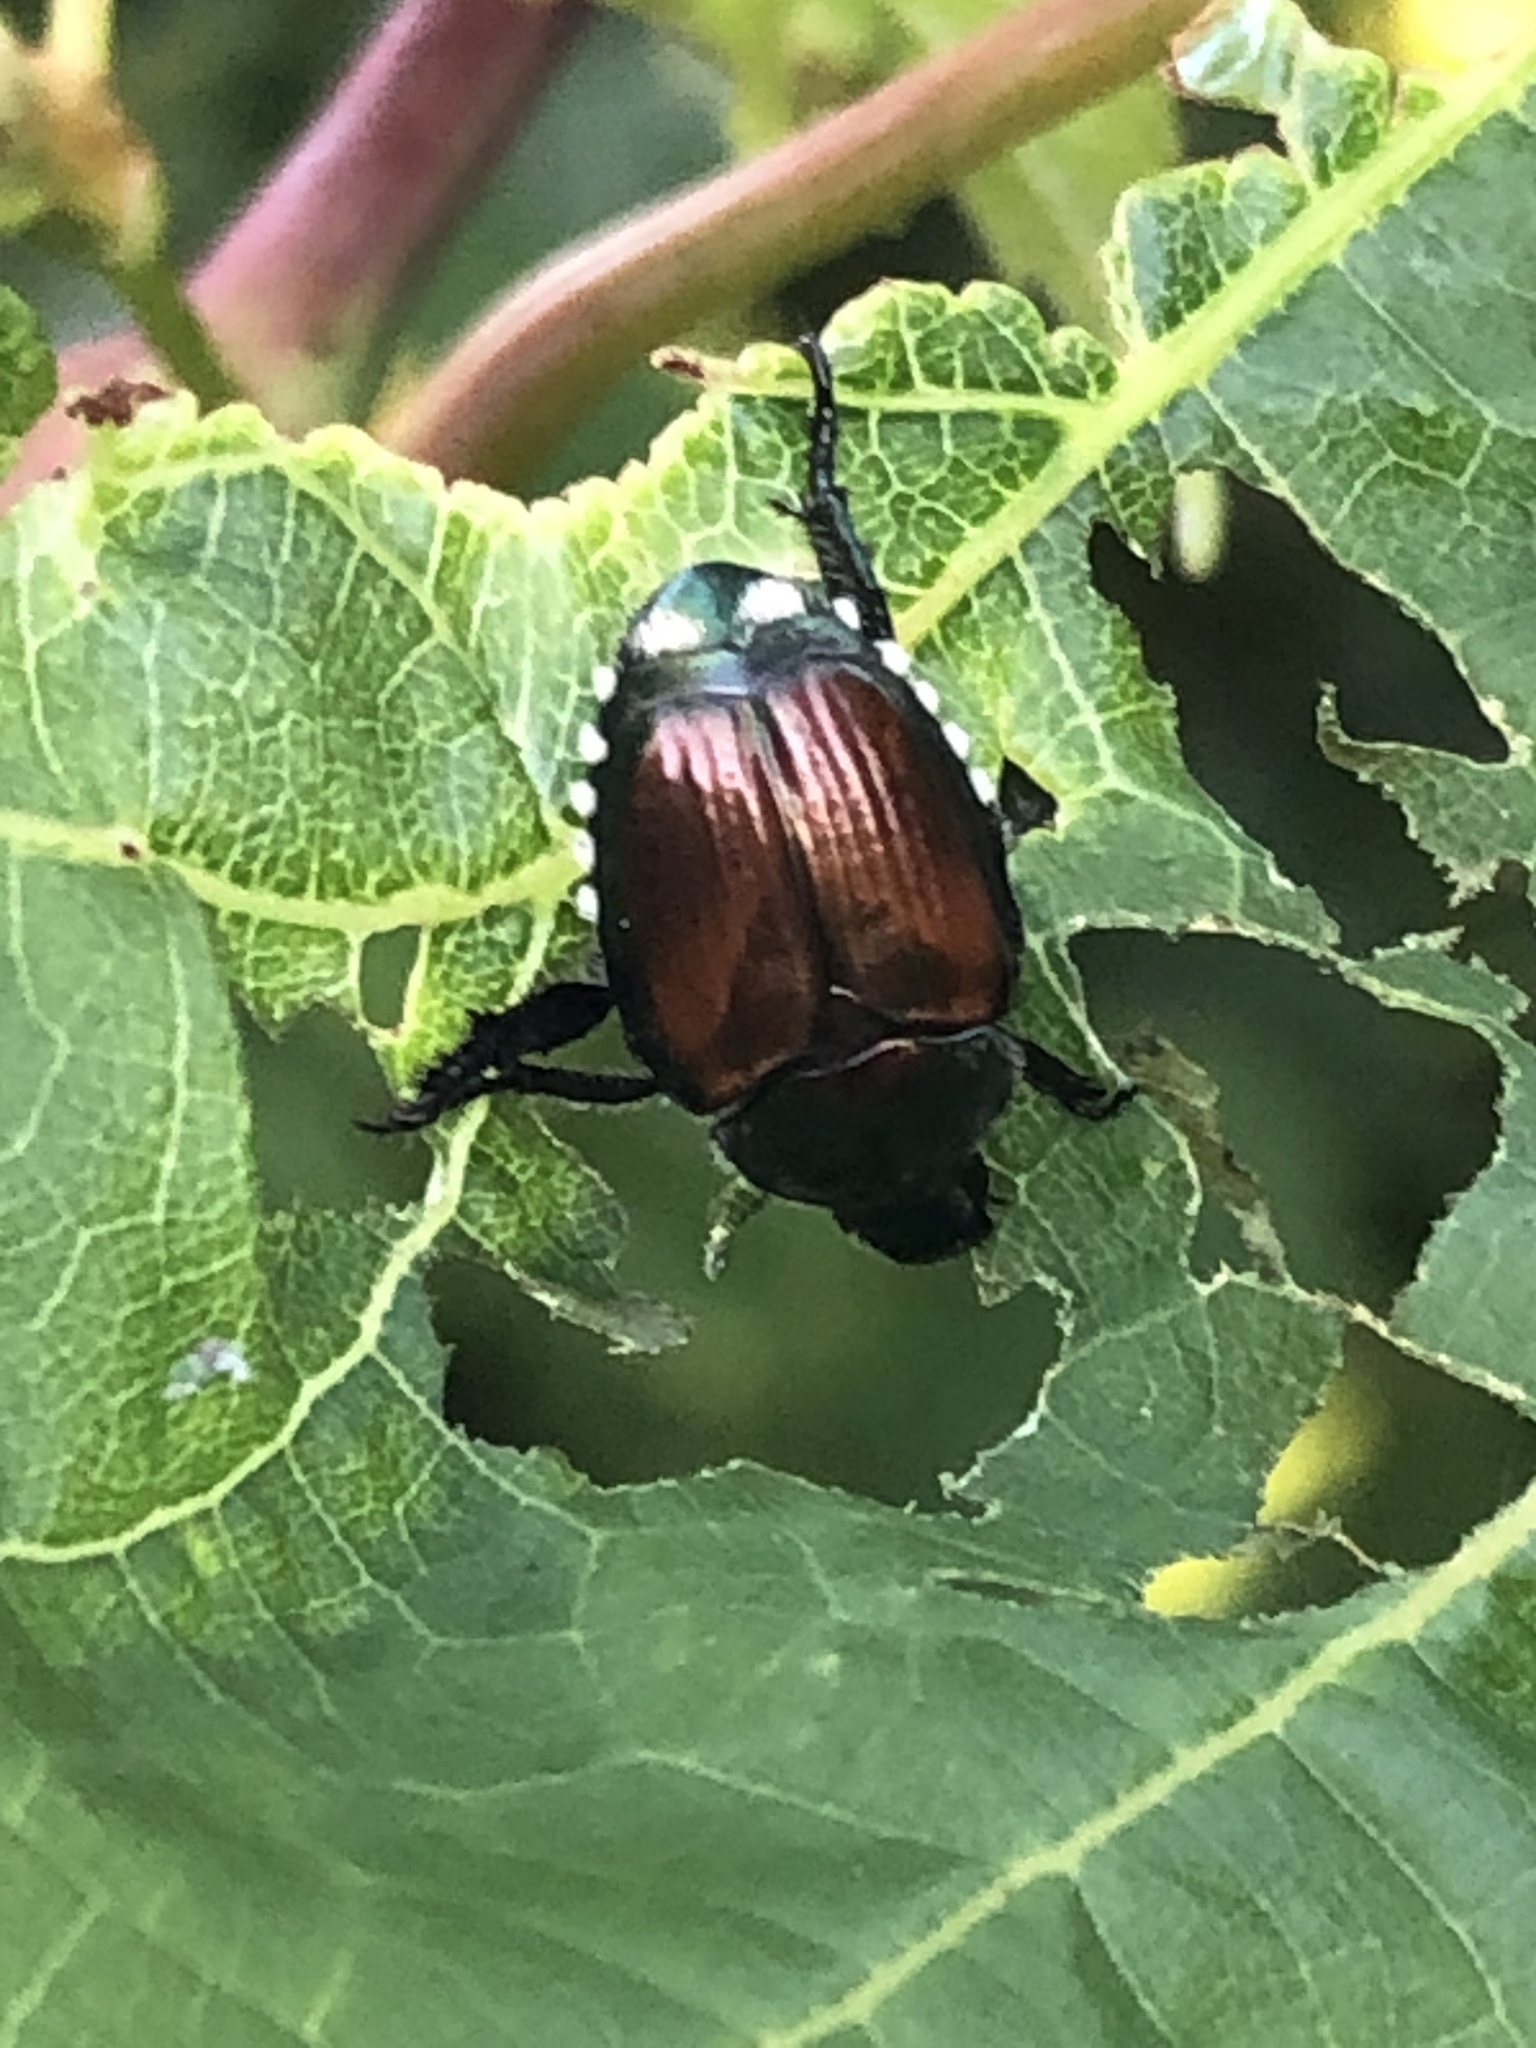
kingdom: Animalia
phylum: Arthropoda
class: Insecta
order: Coleoptera
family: Scarabaeidae
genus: Popillia
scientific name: Popillia japonica
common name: Japanese beetle
